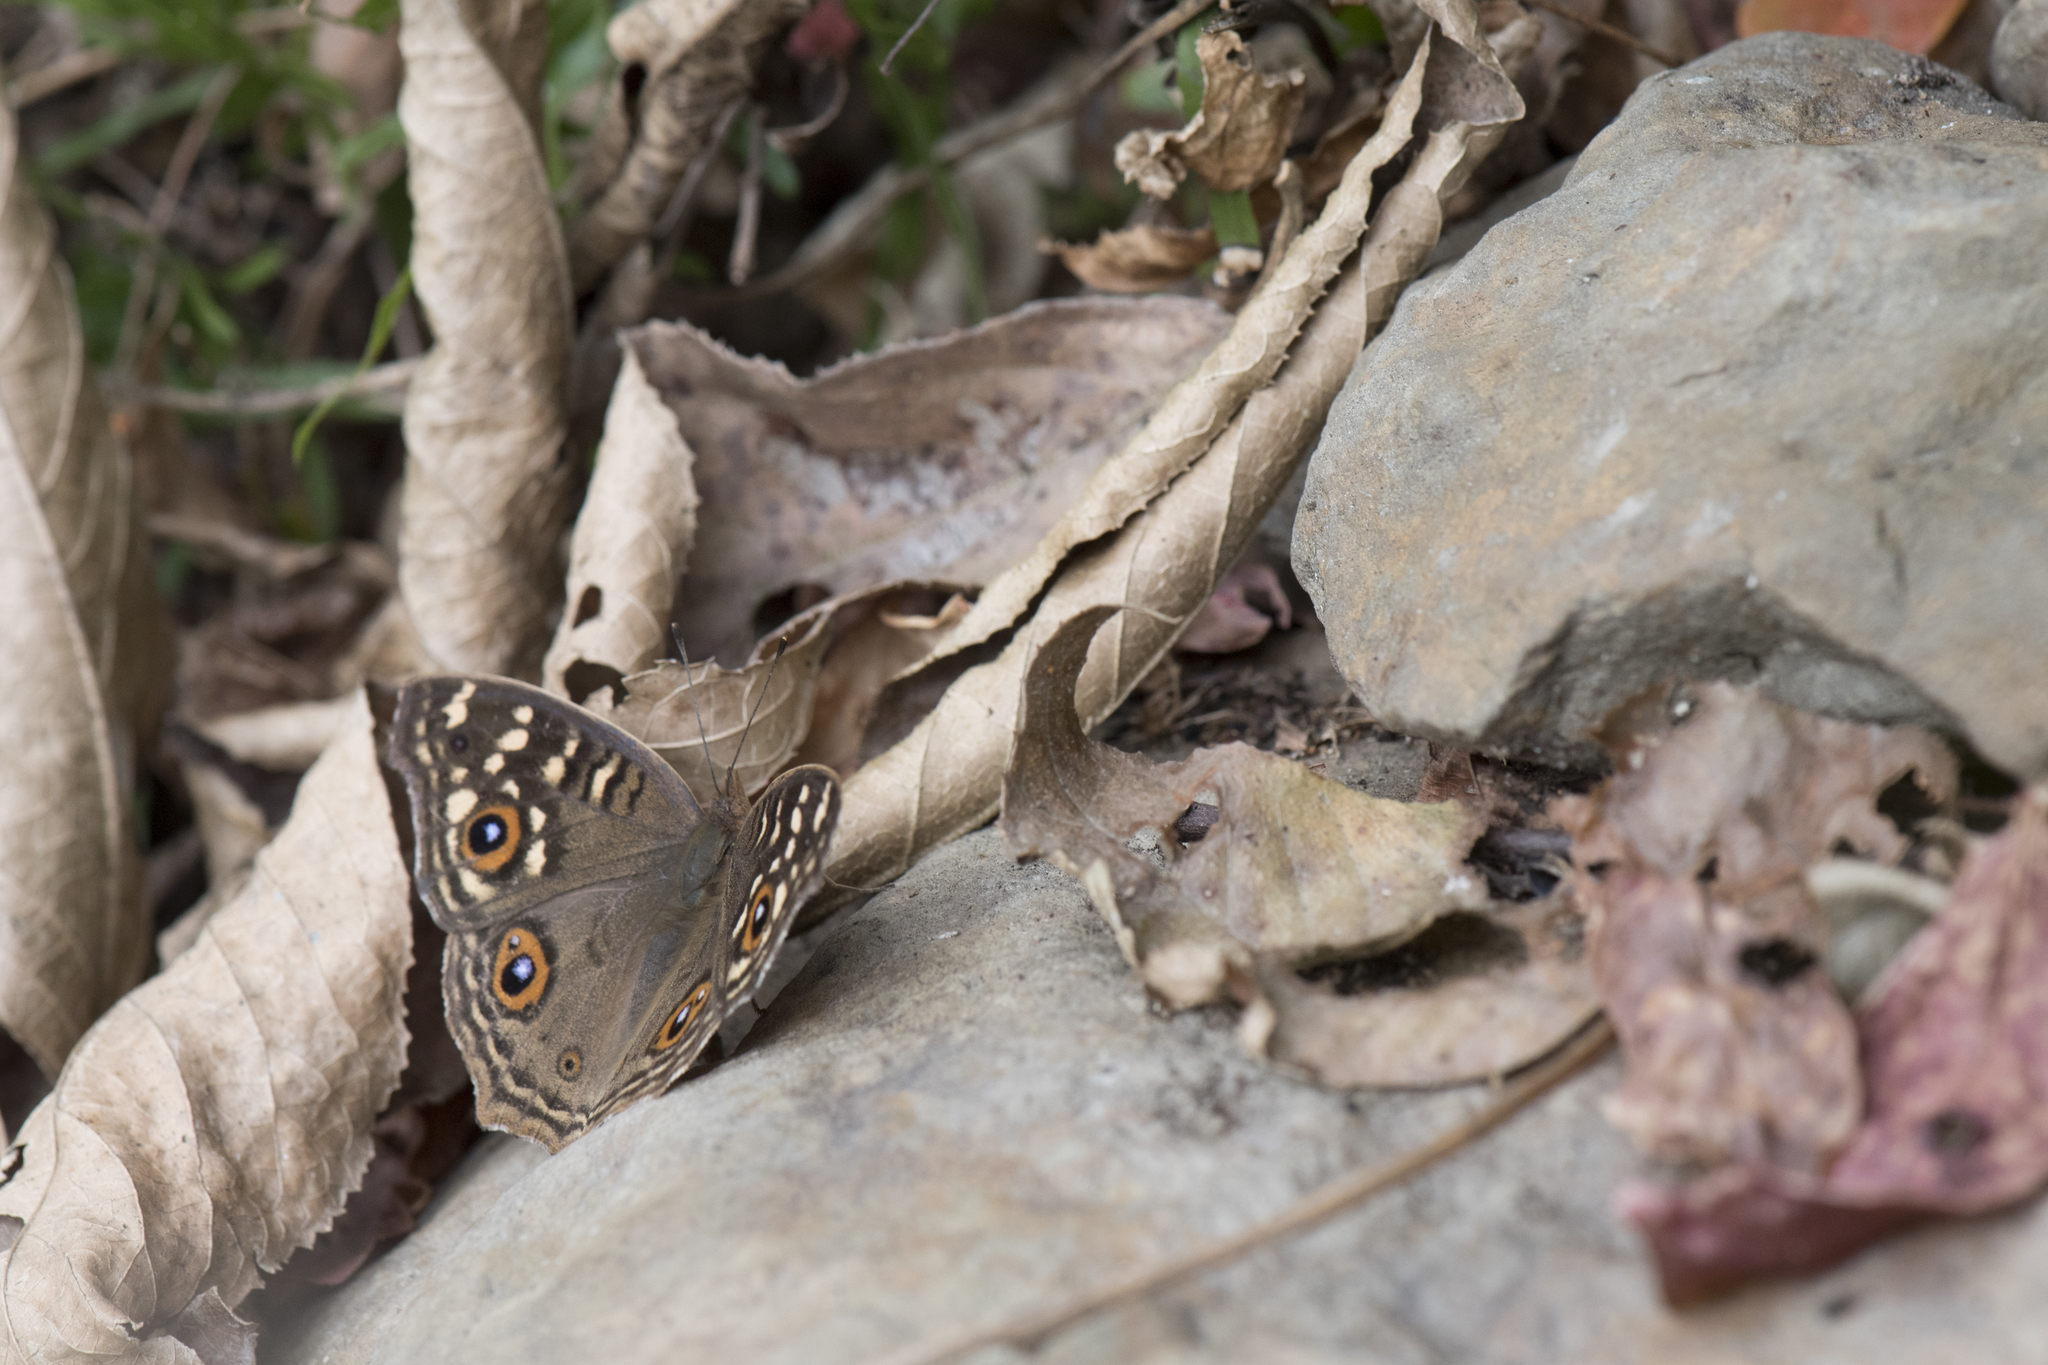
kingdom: Animalia
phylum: Arthropoda
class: Insecta
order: Lepidoptera
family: Nymphalidae
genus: Junonia
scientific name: Junonia lemonias
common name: Lemon pansy
